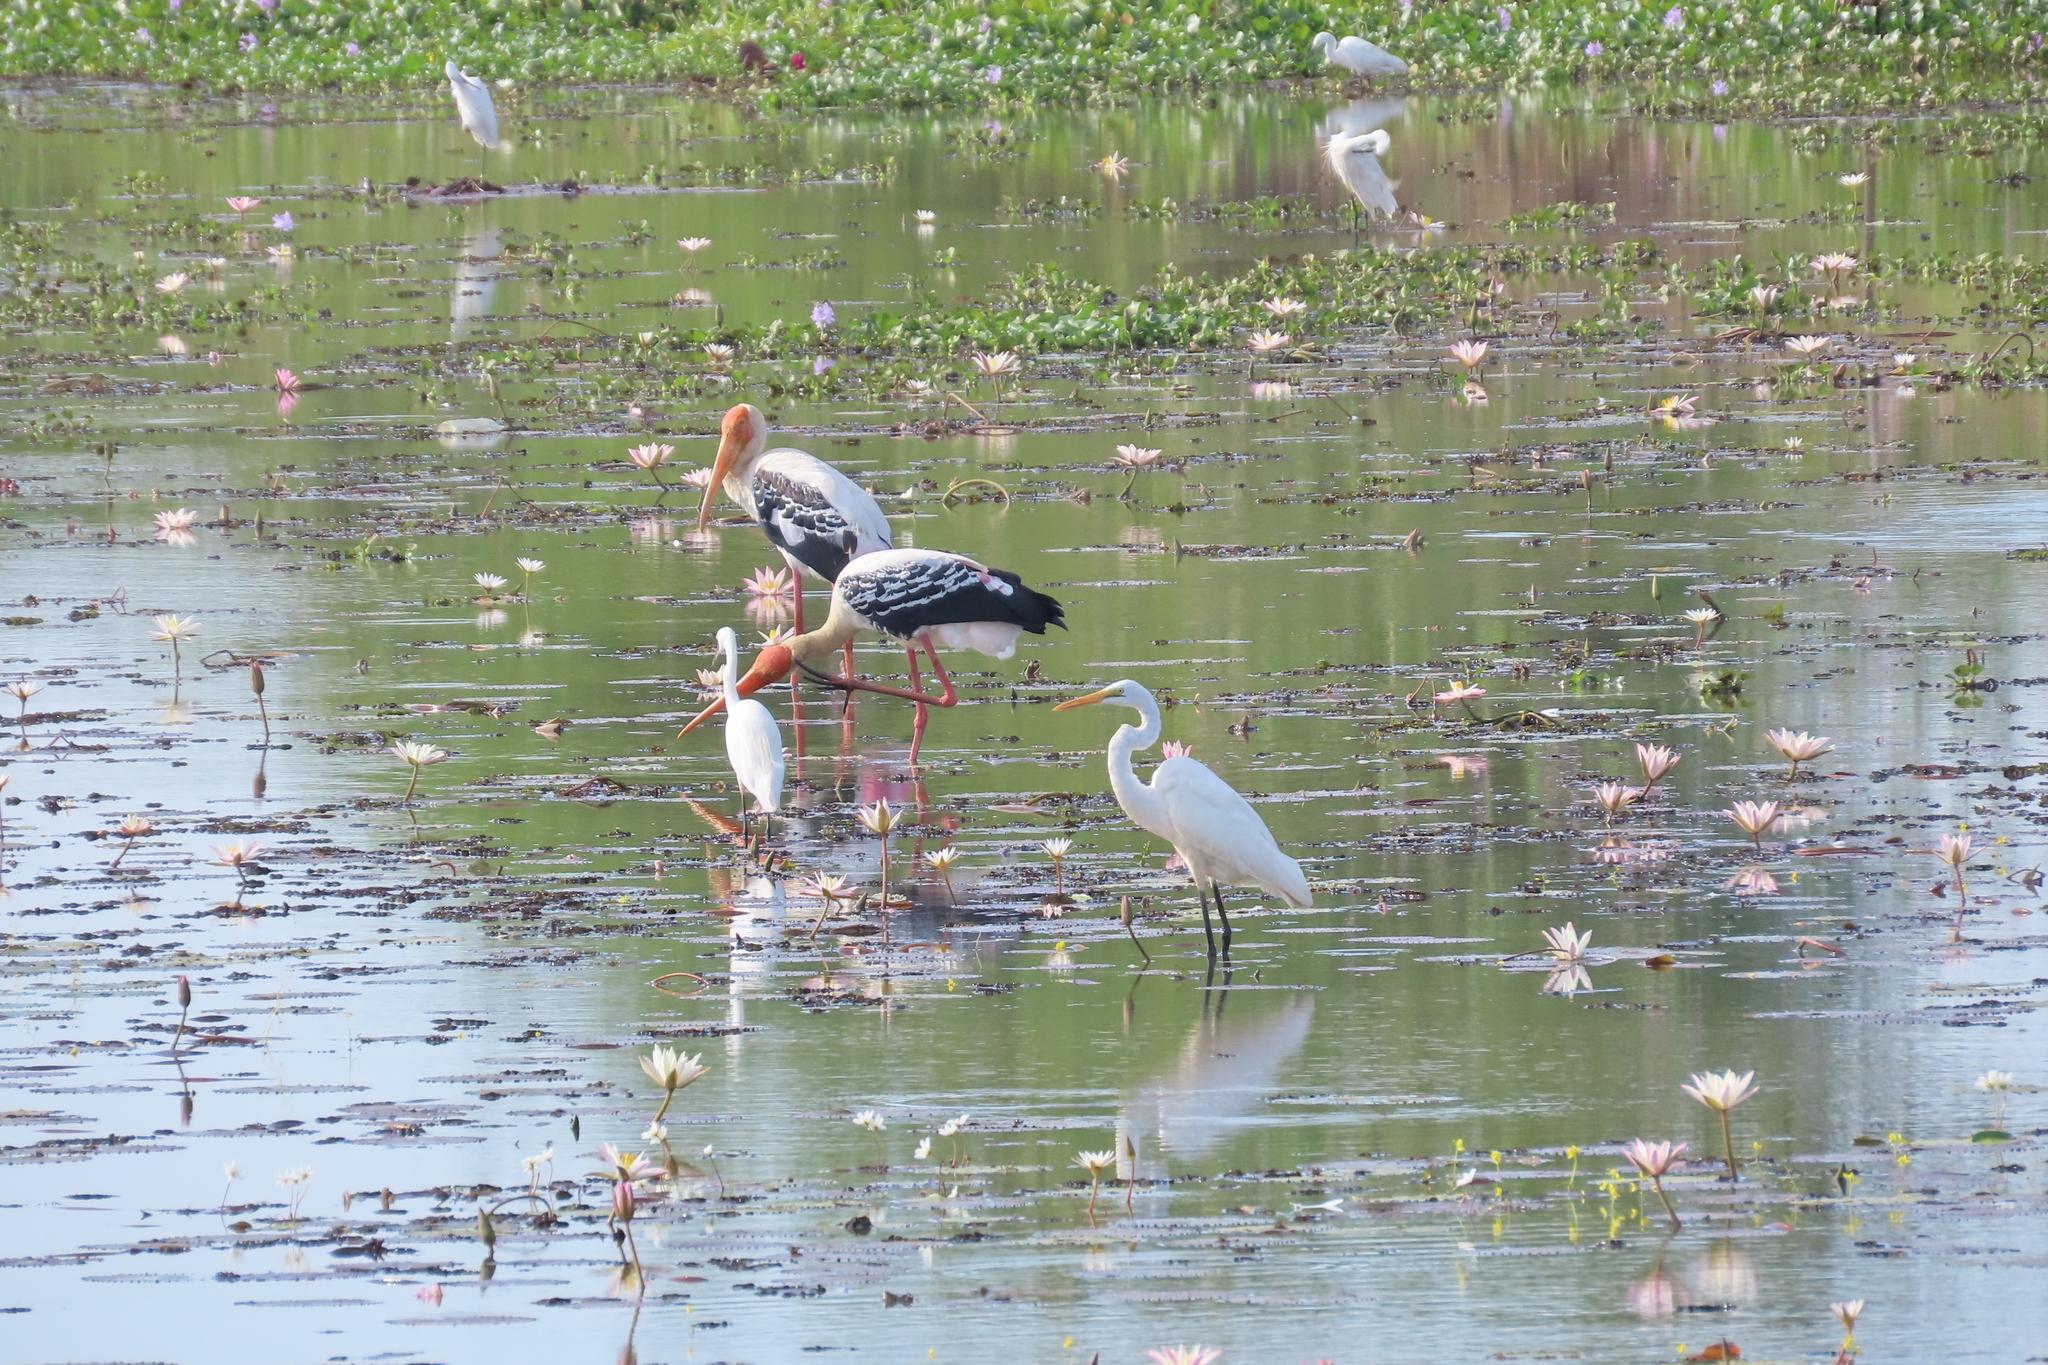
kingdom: Animalia
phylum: Chordata
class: Aves
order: Ciconiiformes
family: Ciconiidae
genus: Mycteria
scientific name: Mycteria leucocephala
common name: Painted stork
